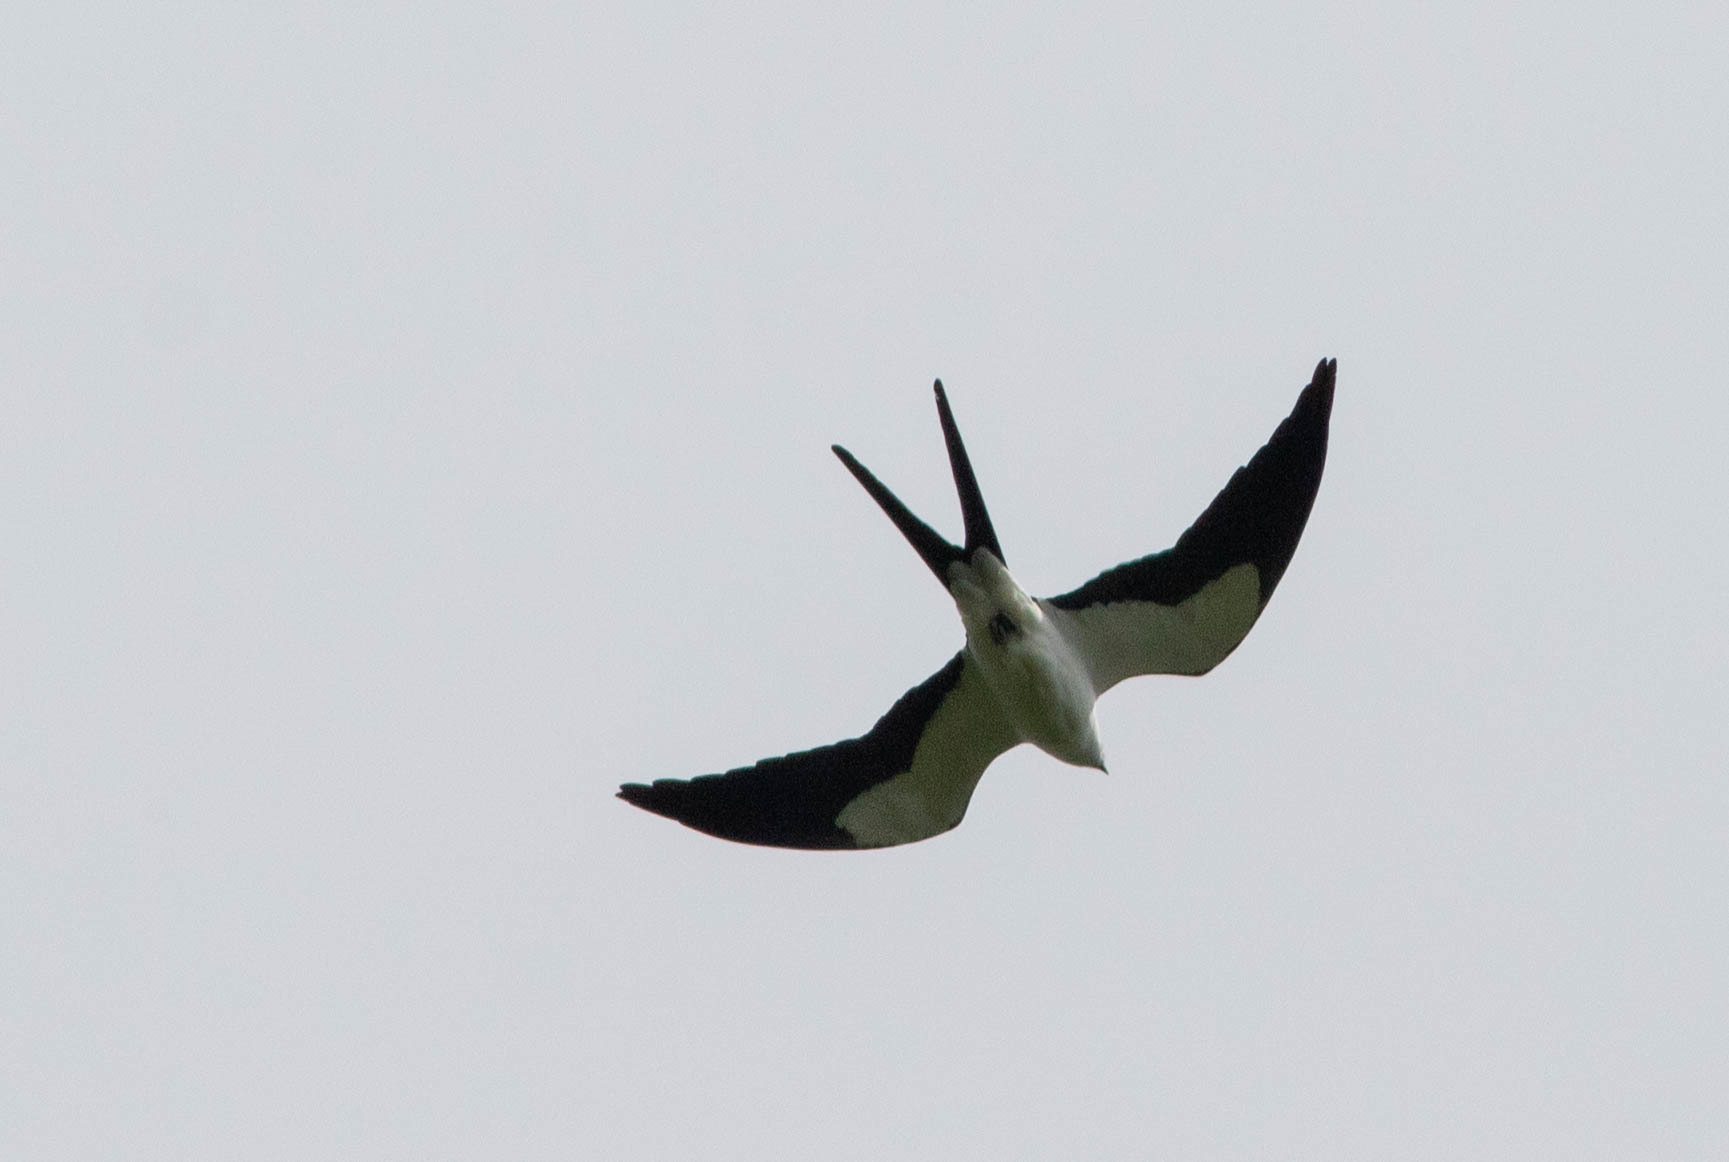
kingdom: Animalia
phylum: Chordata
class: Aves
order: Accipitriformes
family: Accipitridae
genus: Elanoides
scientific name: Elanoides forficatus
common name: Swallow-tailed kite
